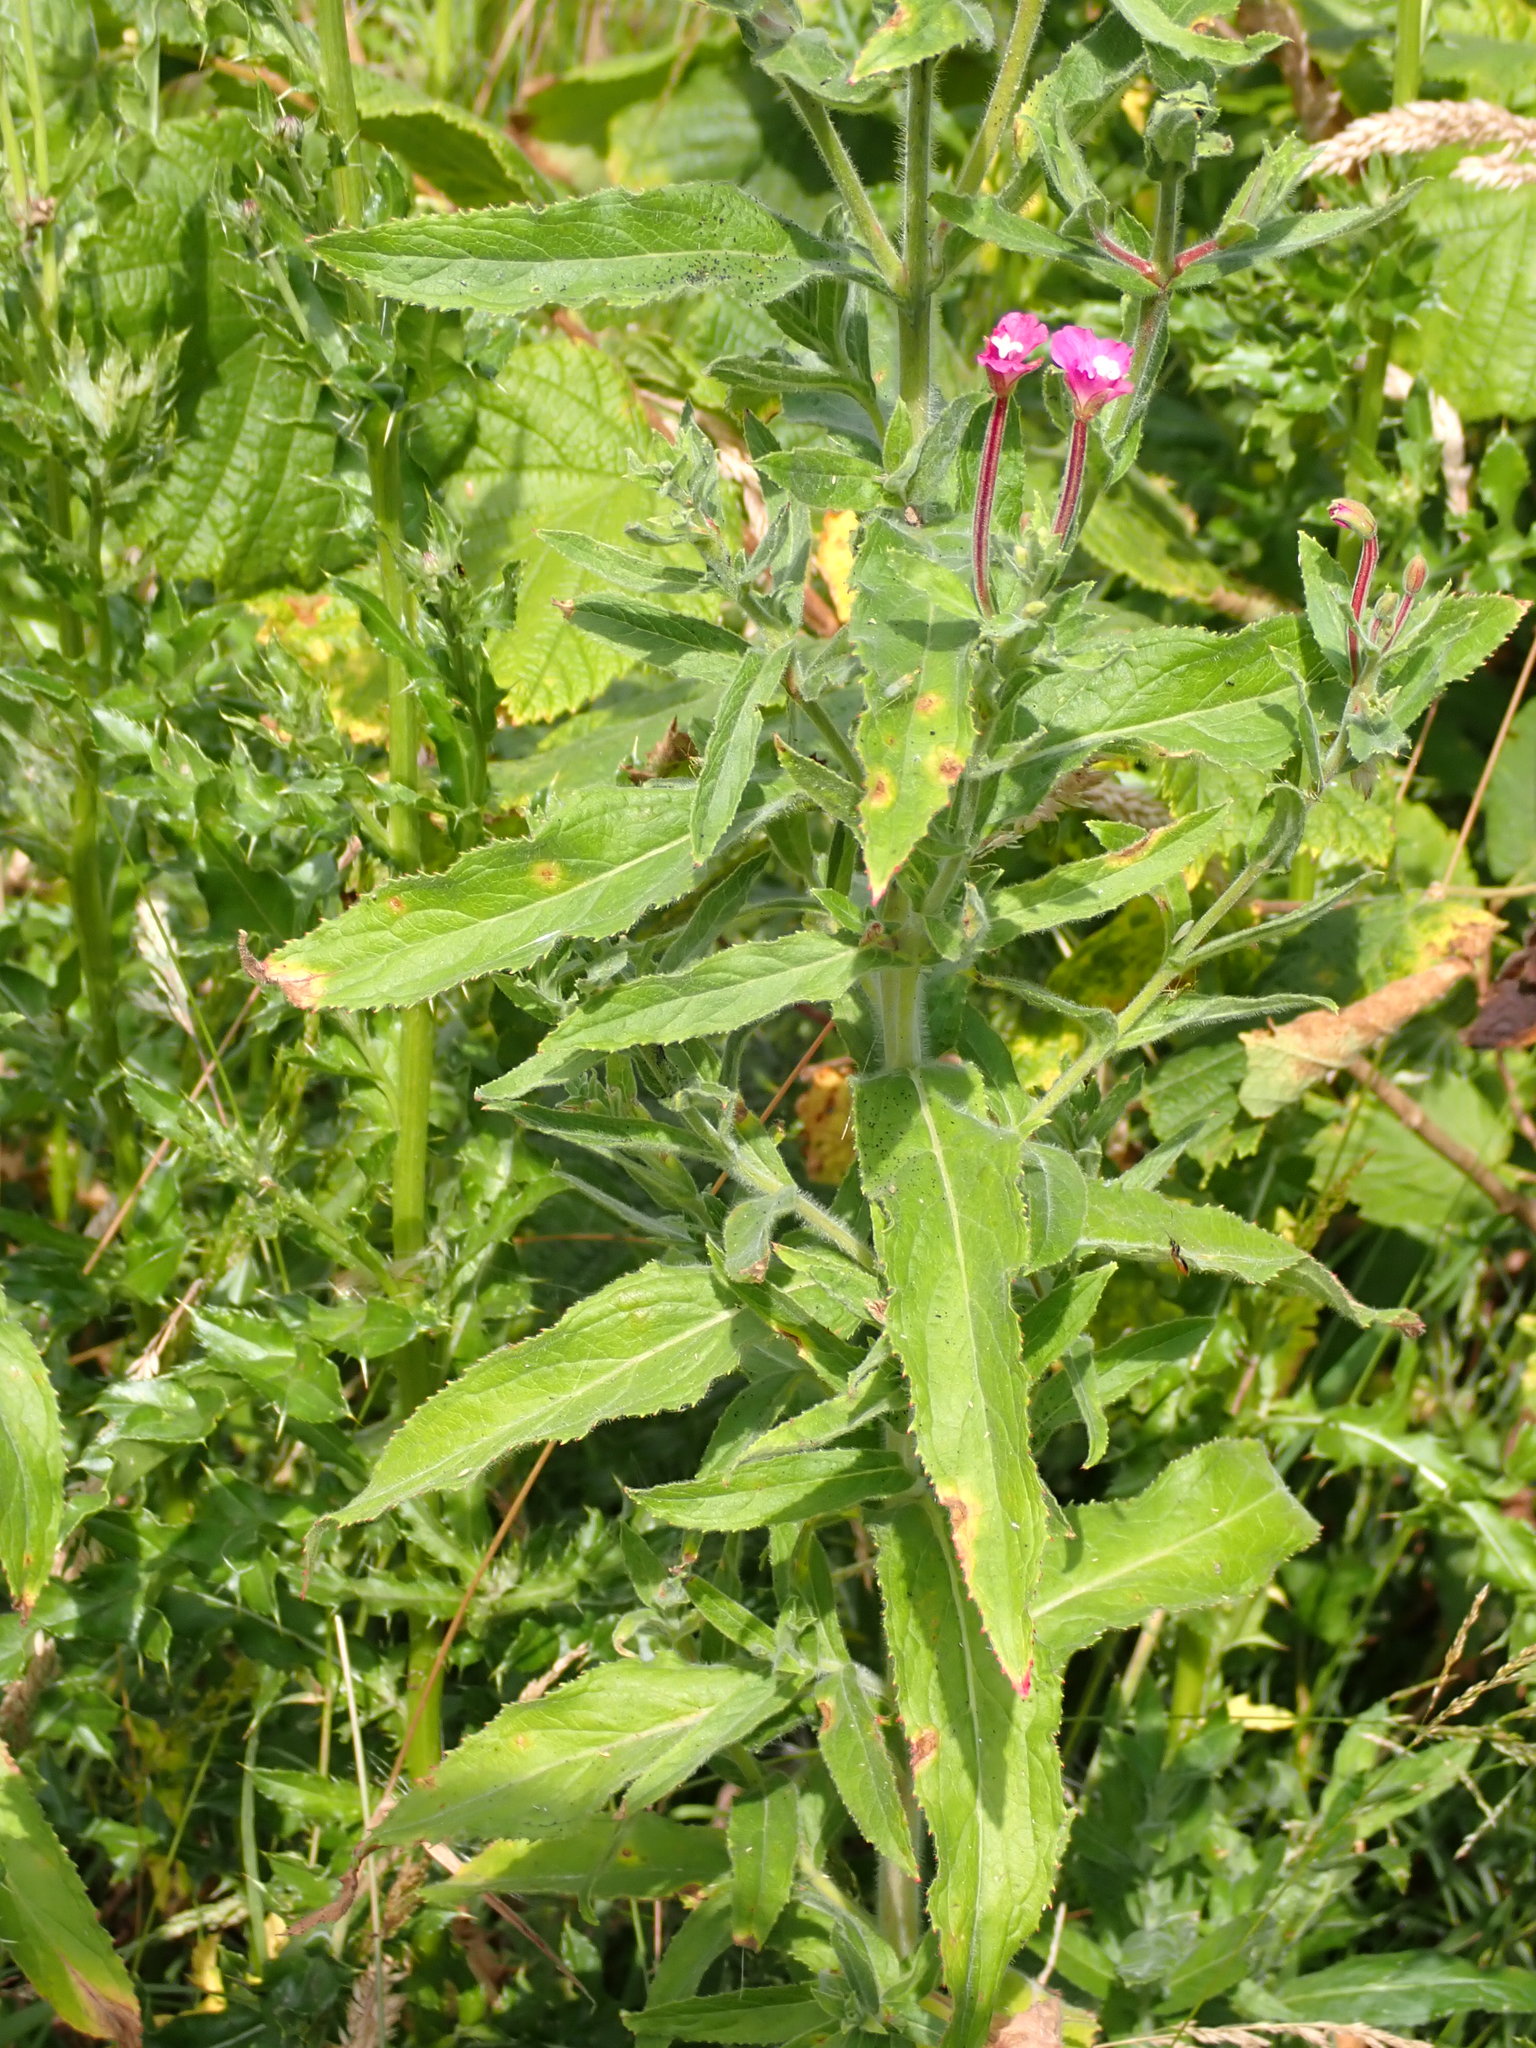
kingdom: Plantae
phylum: Tracheophyta
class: Magnoliopsida
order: Myrtales
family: Onagraceae
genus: Epilobium
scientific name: Epilobium hirsutum
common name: Great willowherb
